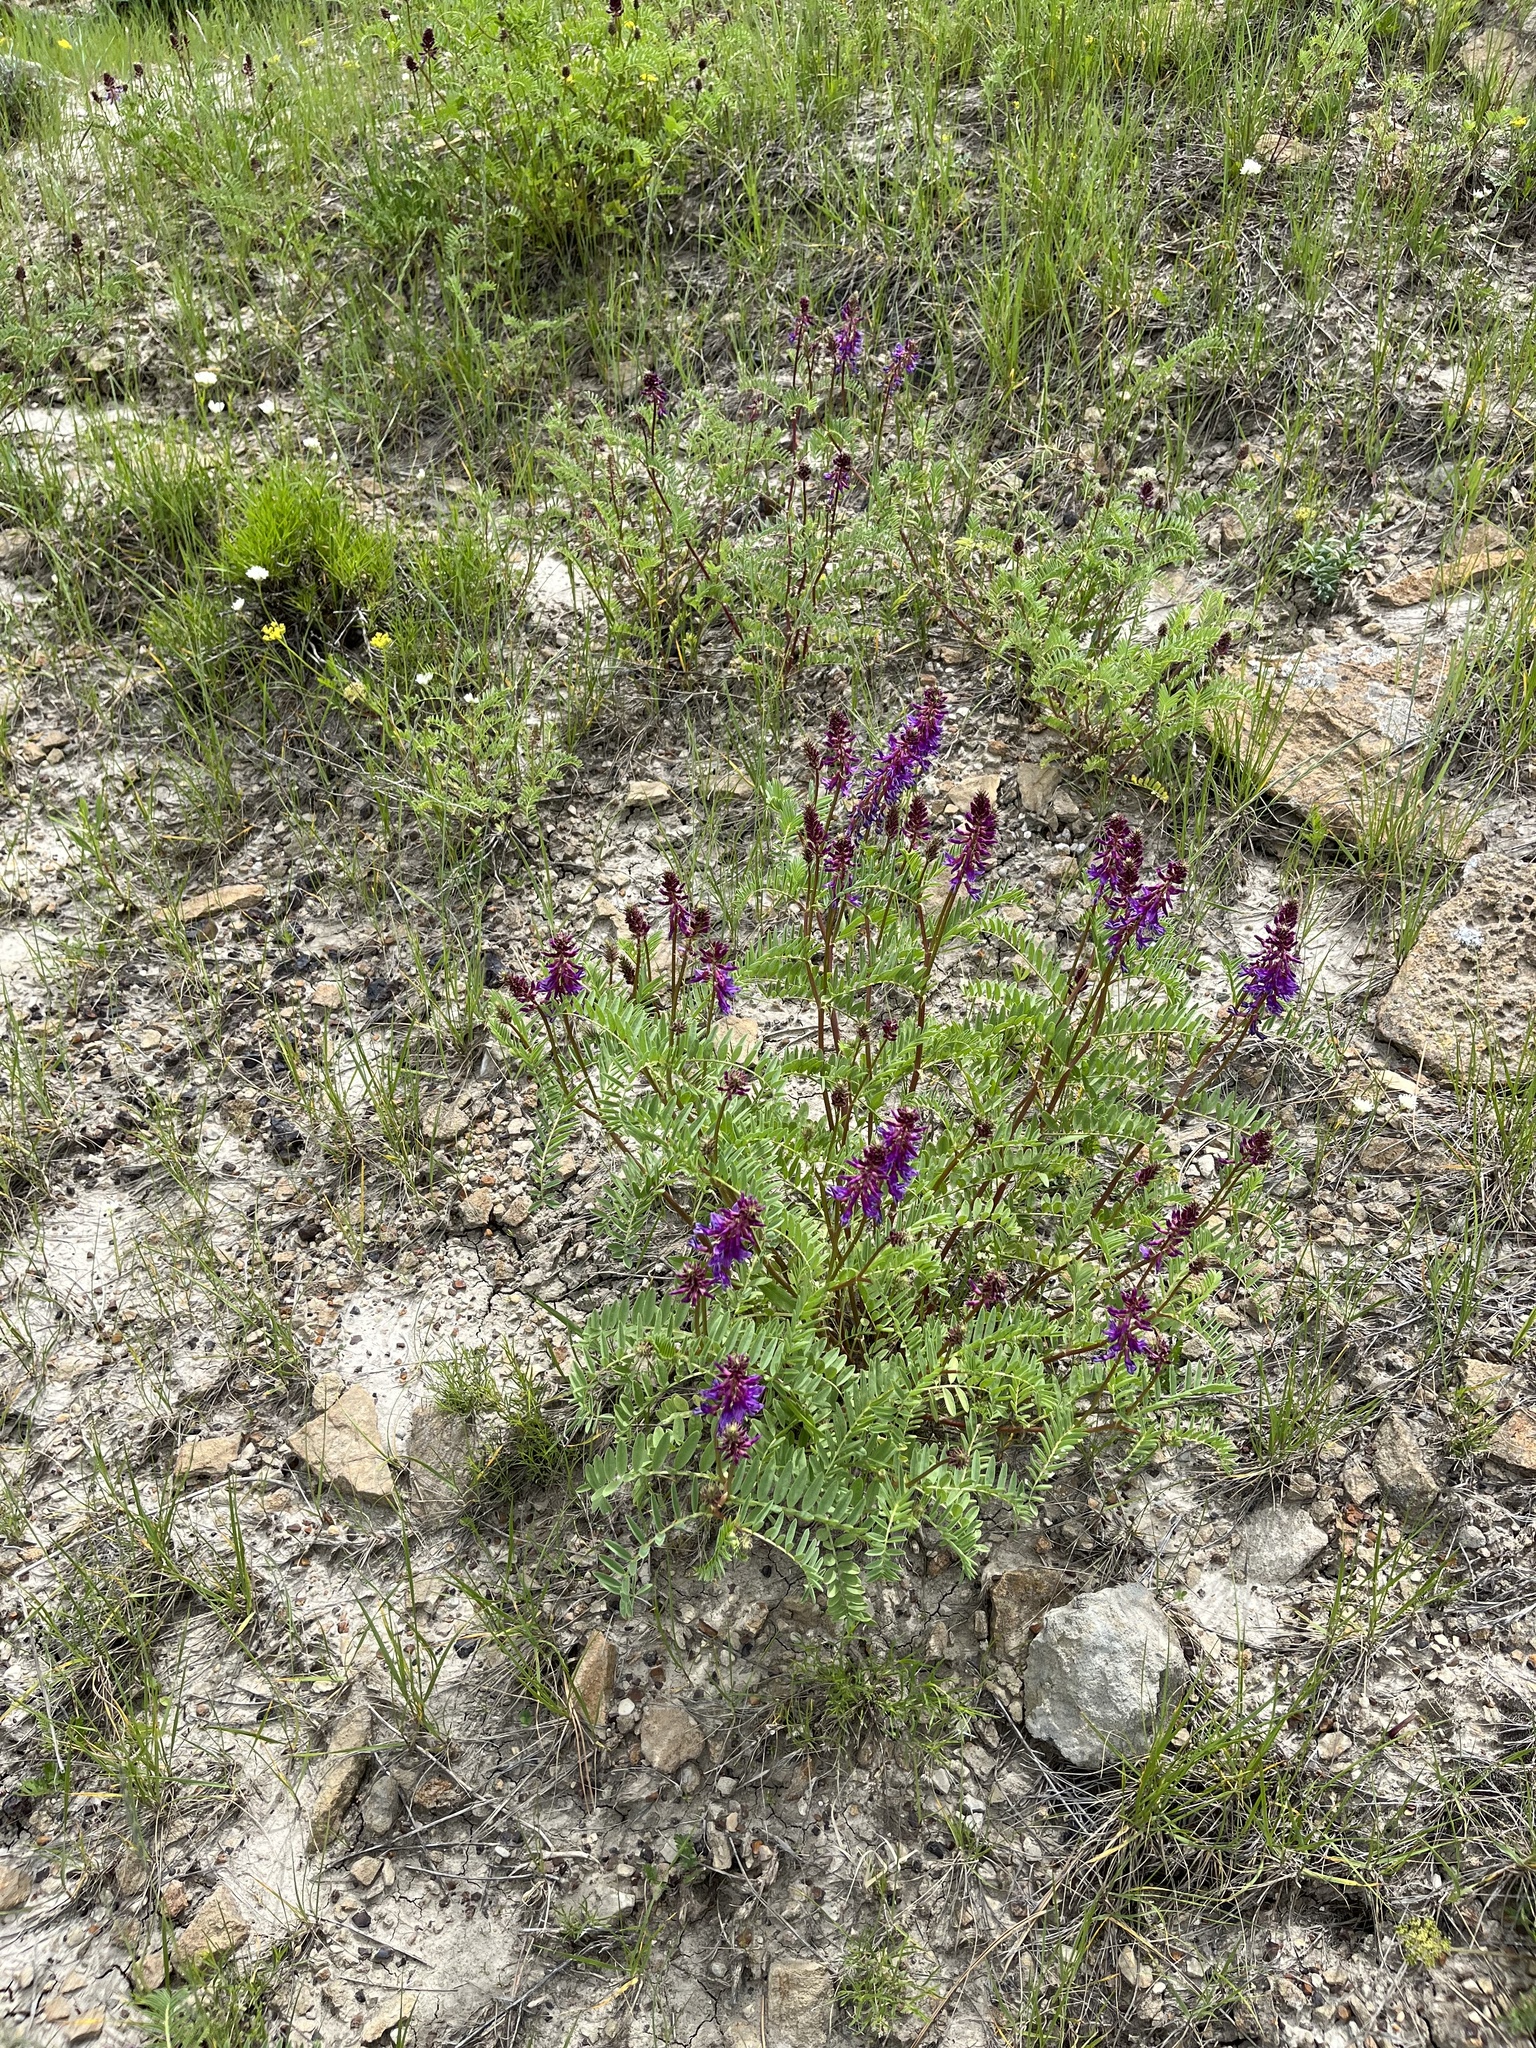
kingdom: Plantae
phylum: Tracheophyta
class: Magnoliopsida
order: Fabales
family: Fabaceae
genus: Astragalus
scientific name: Astragalus bisulcatus
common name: Two-groove milk-vetch
